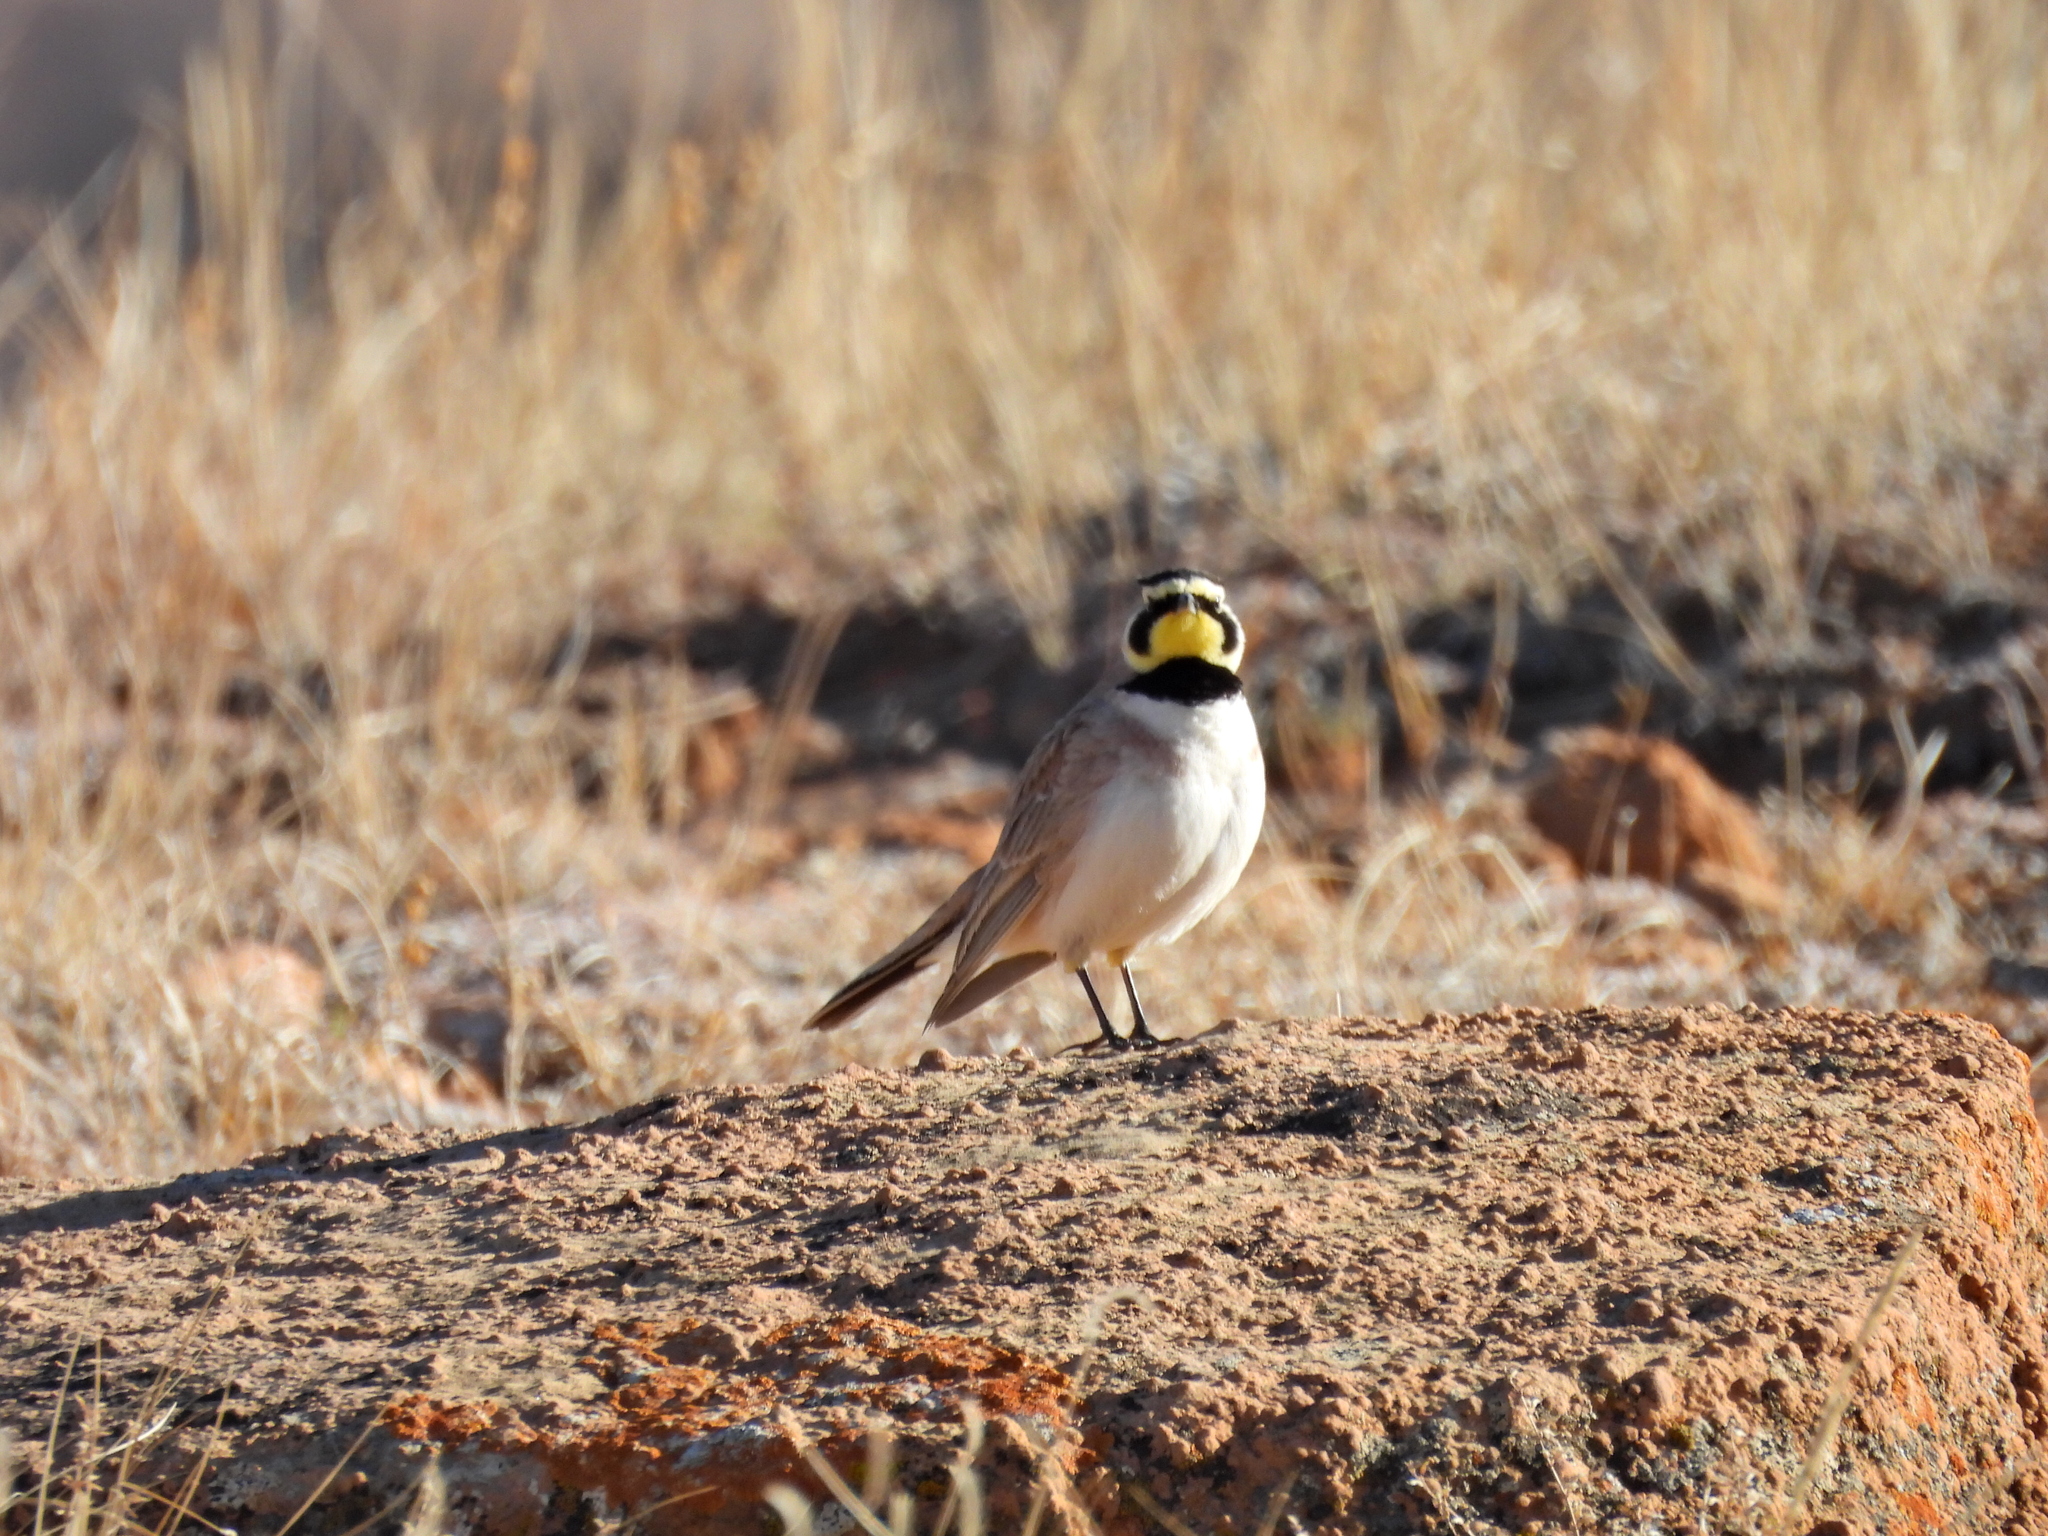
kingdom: Animalia
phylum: Chordata
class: Aves
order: Passeriformes
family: Alaudidae
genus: Eremophila
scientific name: Eremophila alpestris
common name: Horned lark
